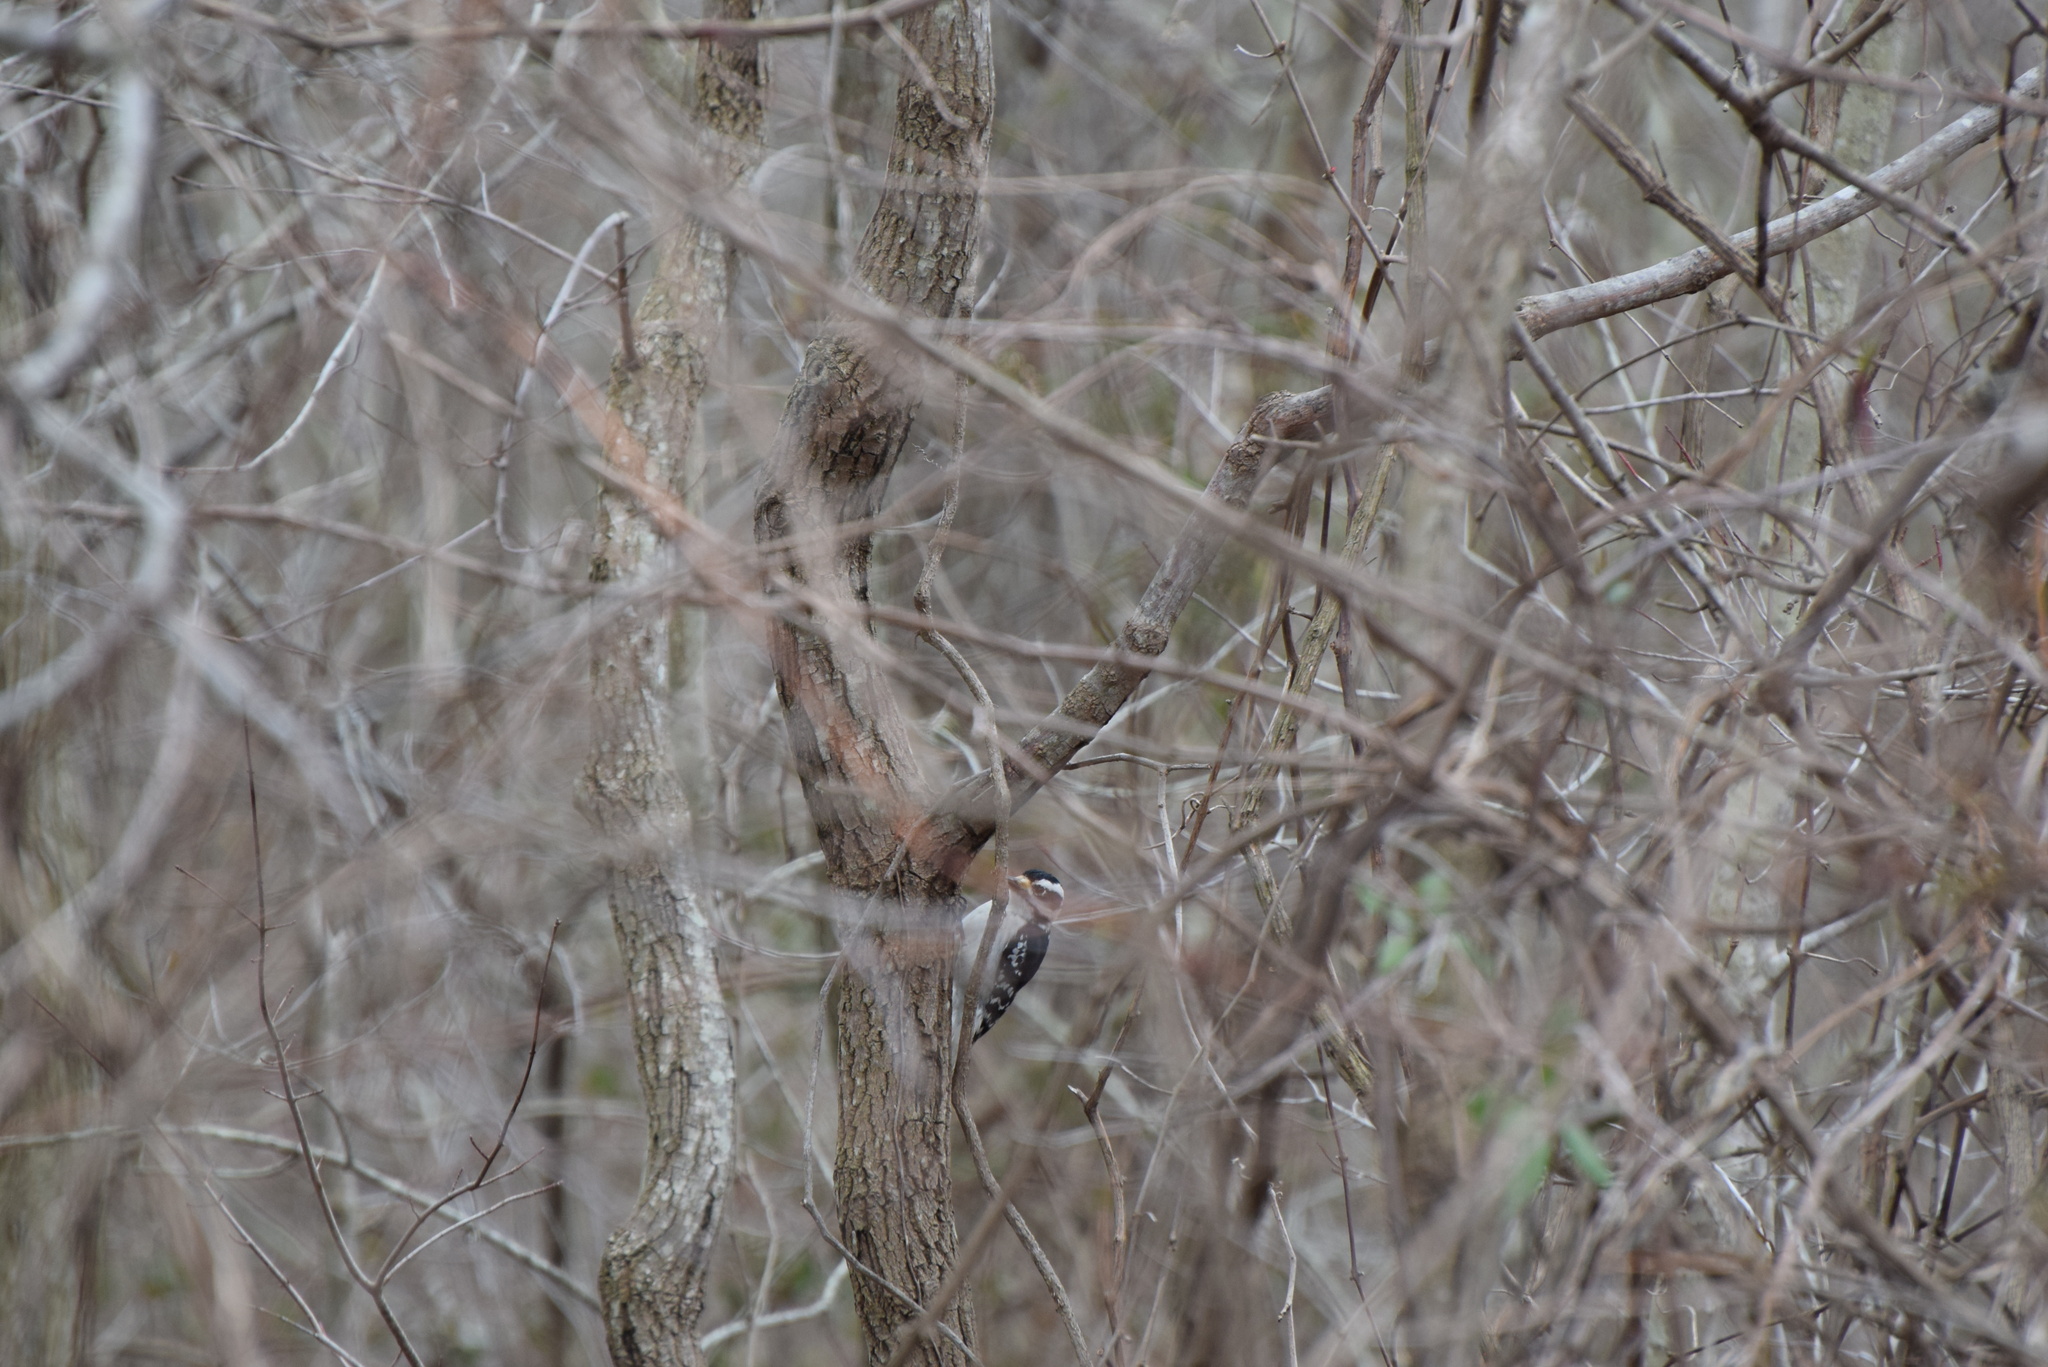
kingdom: Animalia
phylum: Chordata
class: Aves
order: Piciformes
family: Picidae
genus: Dryobates
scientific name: Dryobates pubescens
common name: Downy woodpecker
